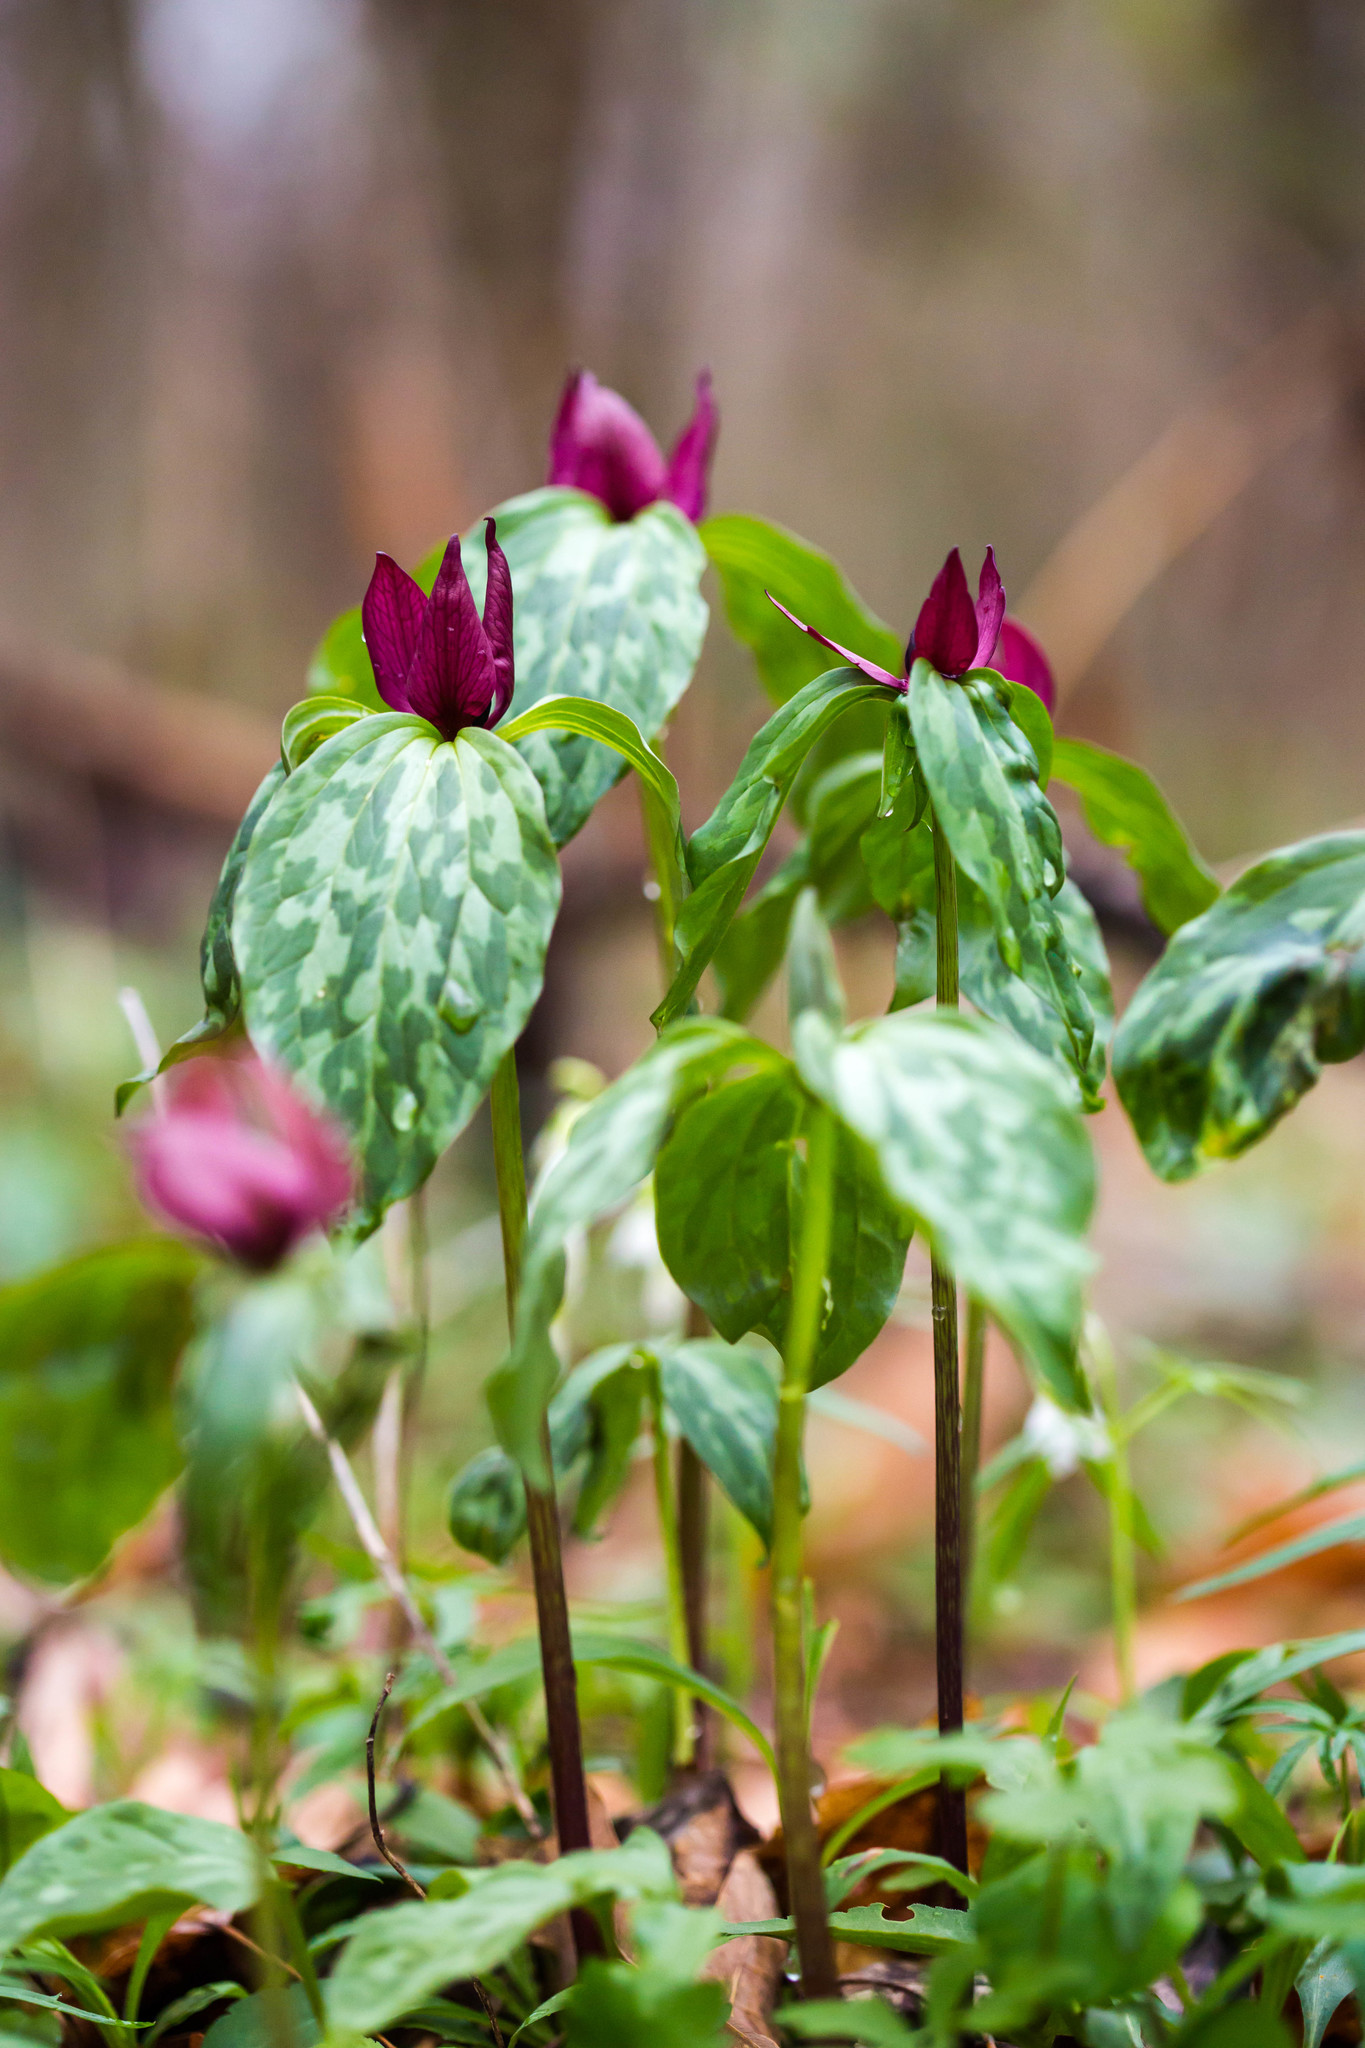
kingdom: Plantae
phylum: Tracheophyta
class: Liliopsida
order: Liliales
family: Melanthiaceae
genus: Trillium
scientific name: Trillium recurvatum
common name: Bloody butcher
